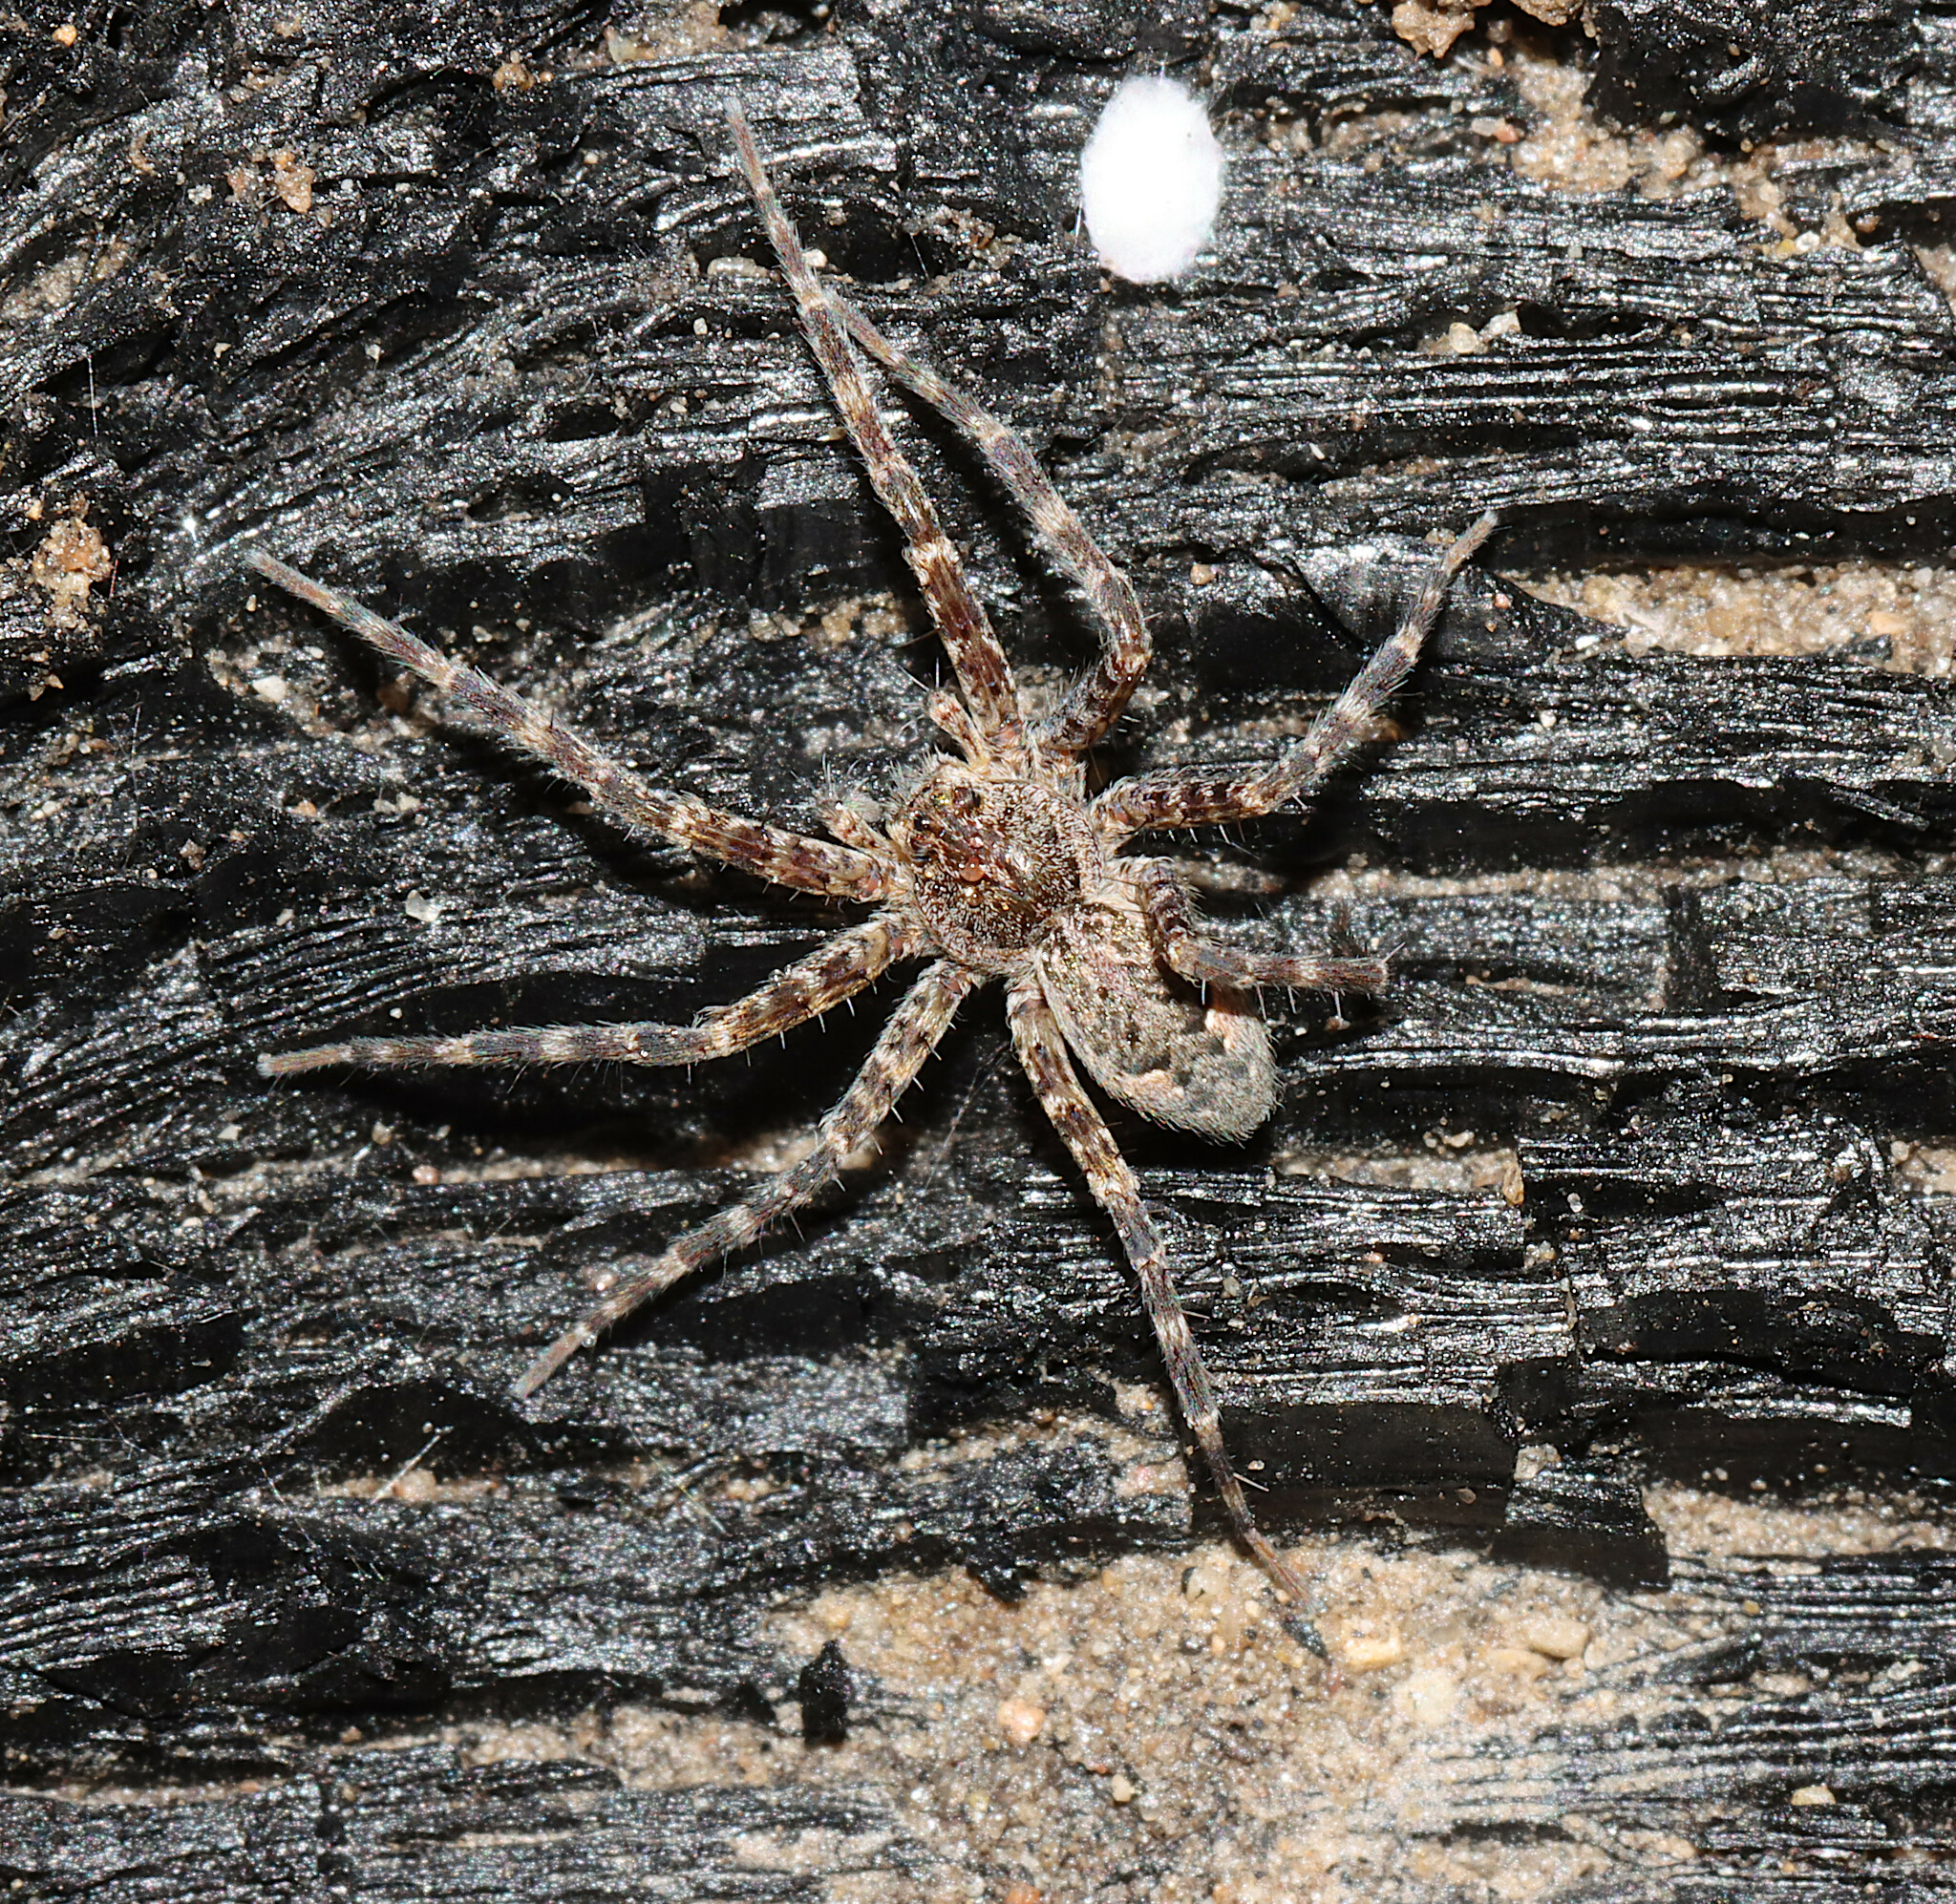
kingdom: Animalia
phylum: Arthropoda
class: Arachnida
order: Araneae
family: Pisauridae
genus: Dolomedes
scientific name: Dolomedes tenebrosus
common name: Dark fishing spider
